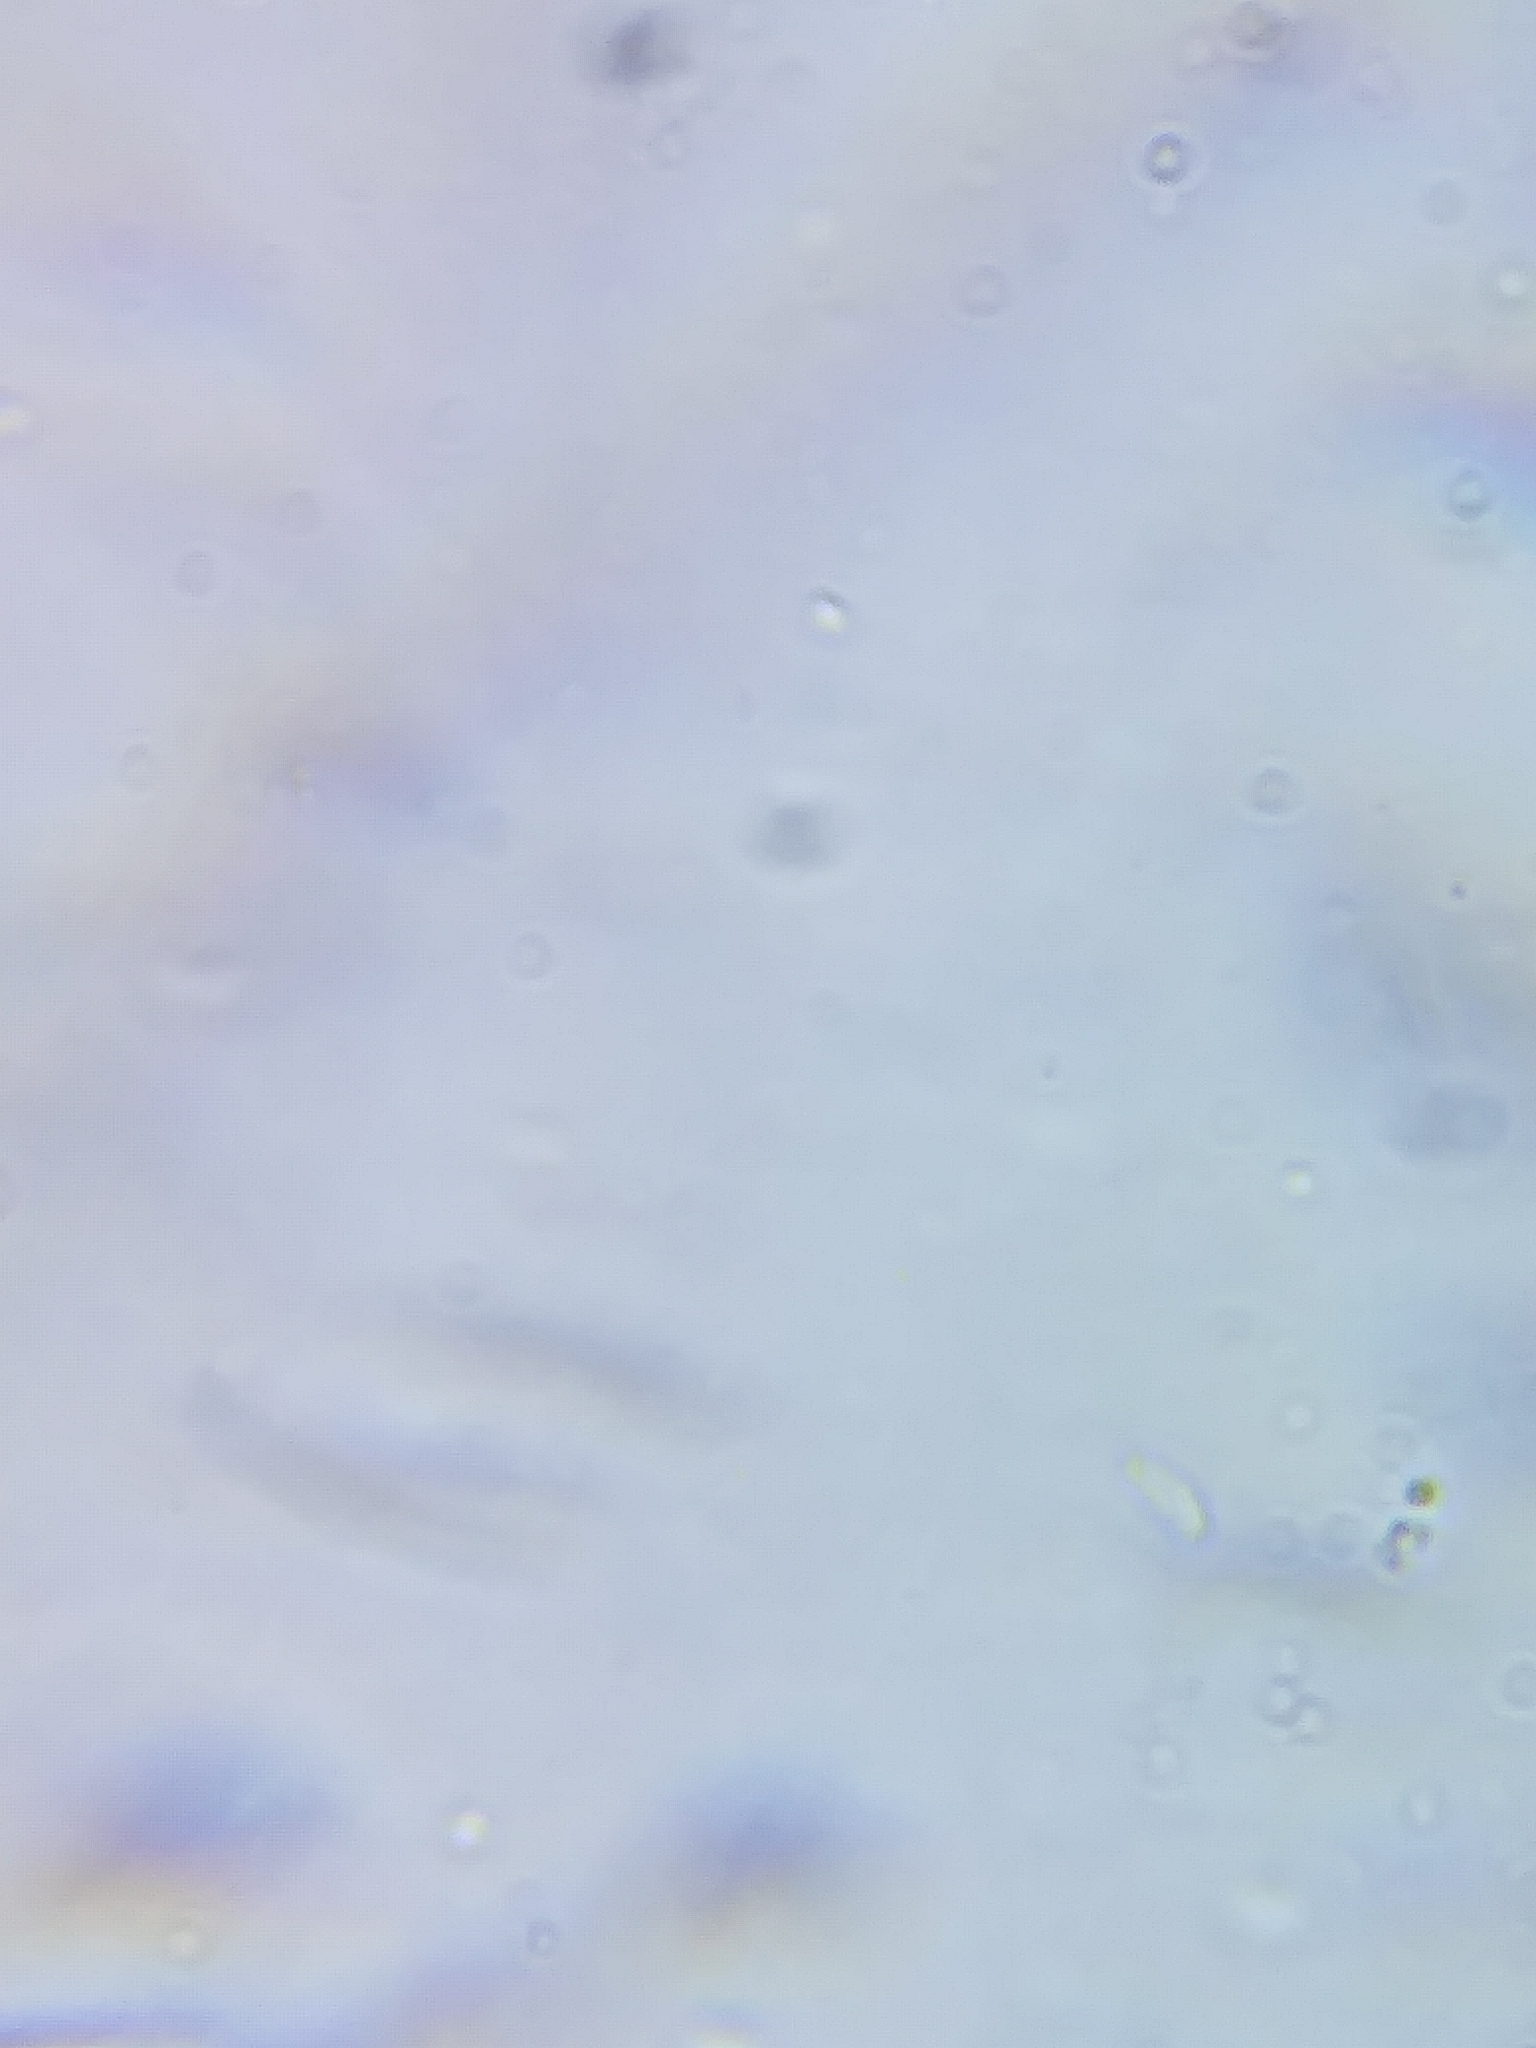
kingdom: Fungi
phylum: Basidiomycota
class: Agaricomycetes
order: Polyporales
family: Polyporaceae
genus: Picipes
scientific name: Picipes melanopus
